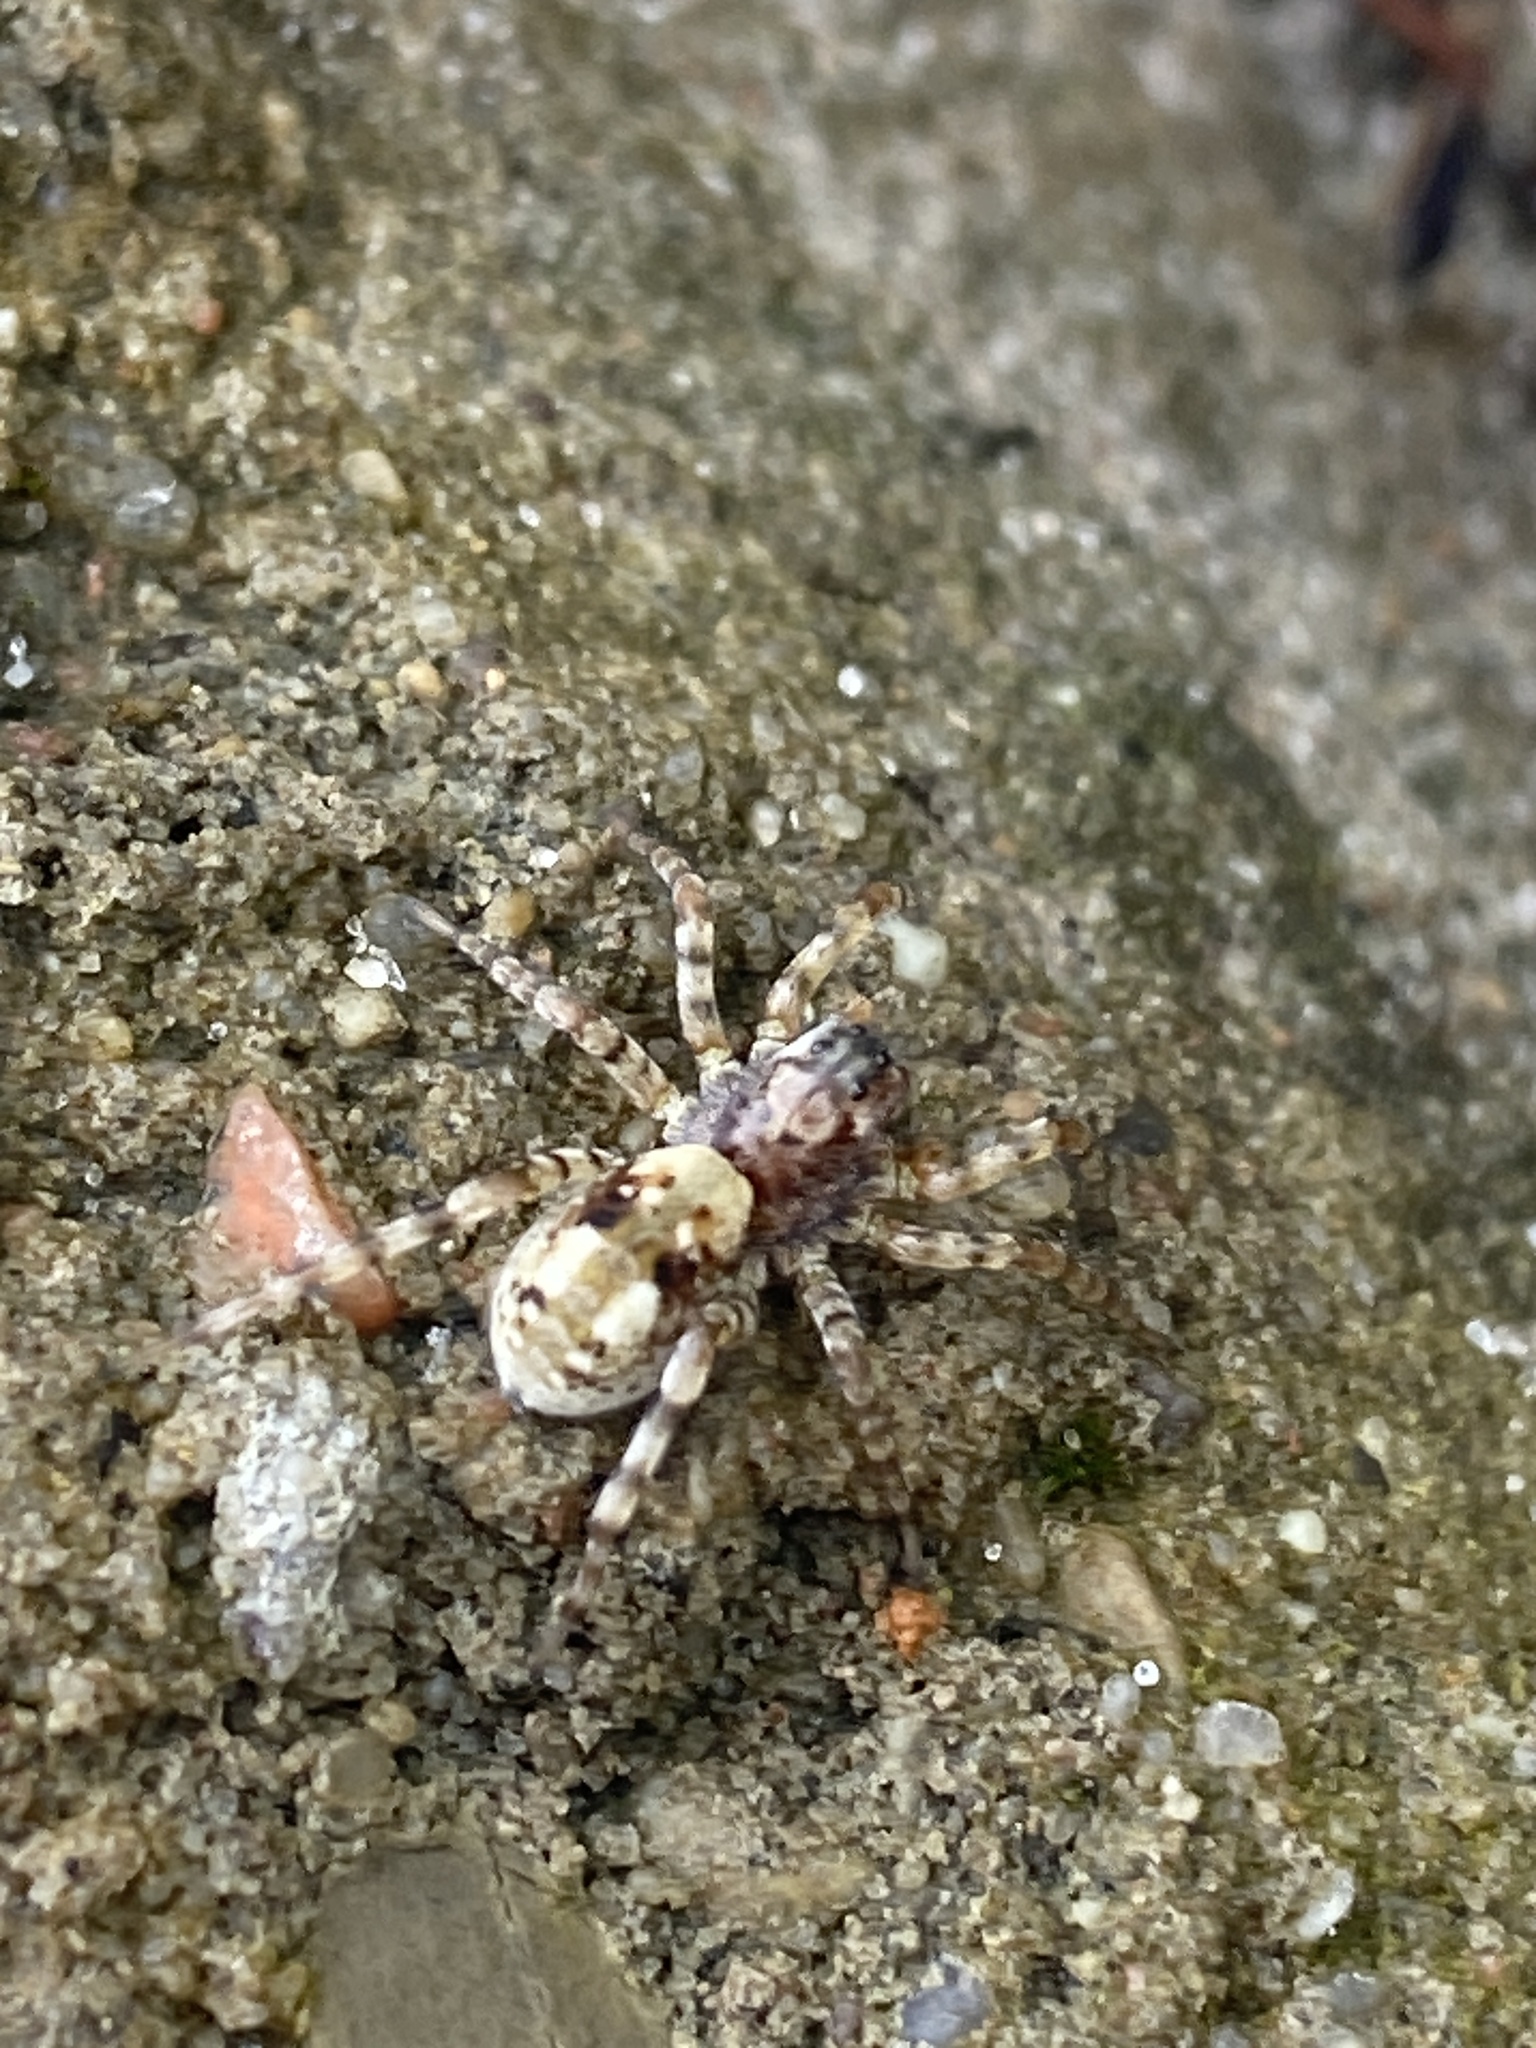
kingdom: Animalia
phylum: Arthropoda
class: Arachnida
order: Araneae
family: Lycosidae
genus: Arctosa
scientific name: Arctosa perita
